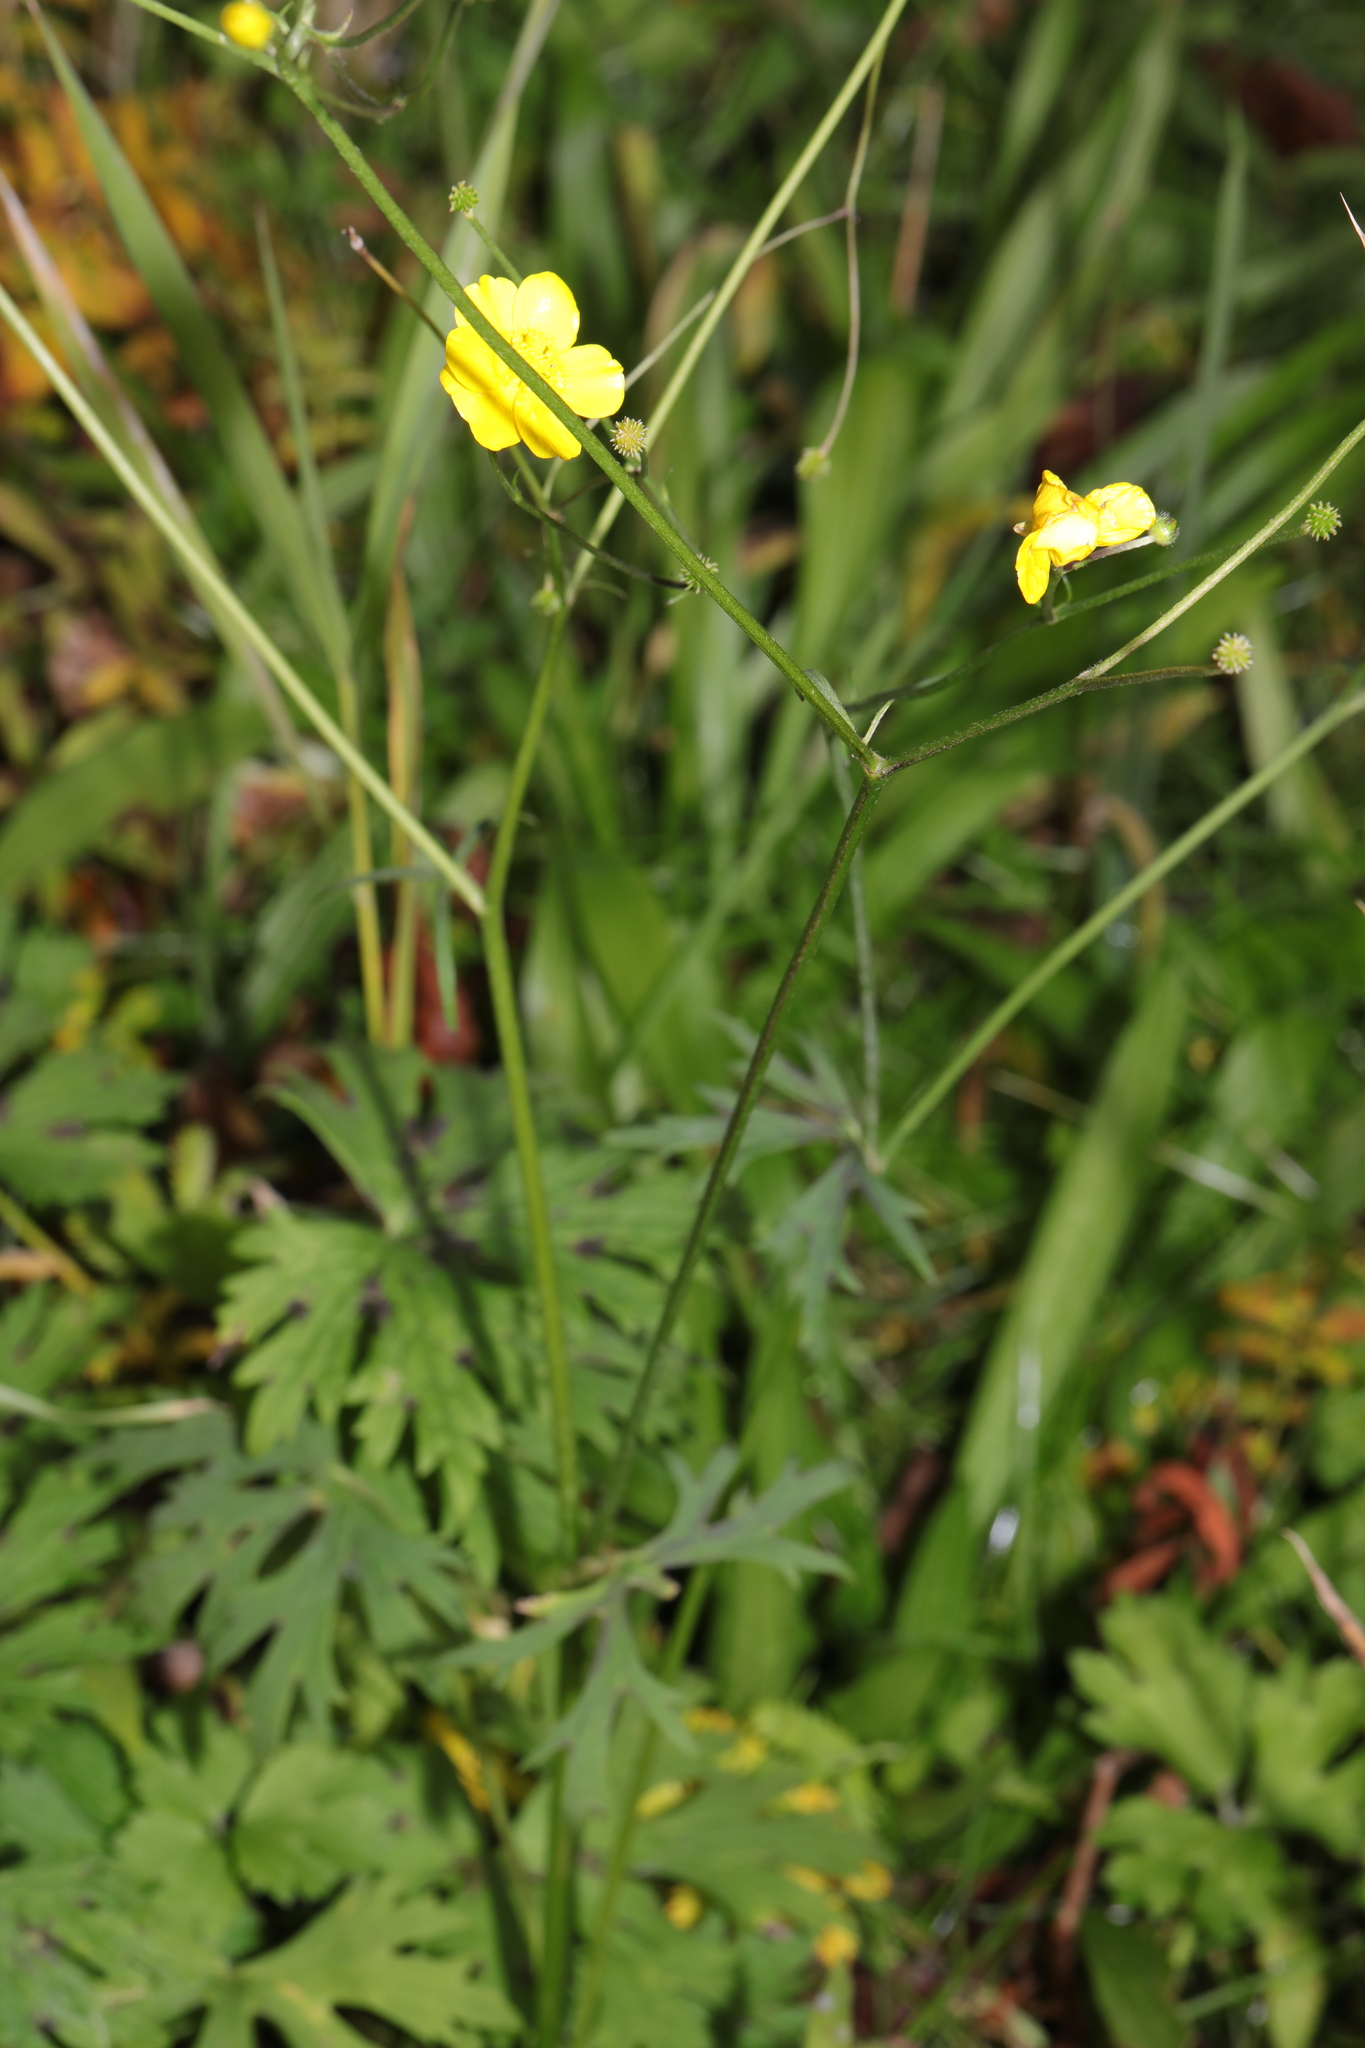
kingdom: Plantae
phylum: Tracheophyta
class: Magnoliopsida
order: Ranunculales
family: Ranunculaceae
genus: Ranunculus
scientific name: Ranunculus acris
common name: Meadow buttercup
